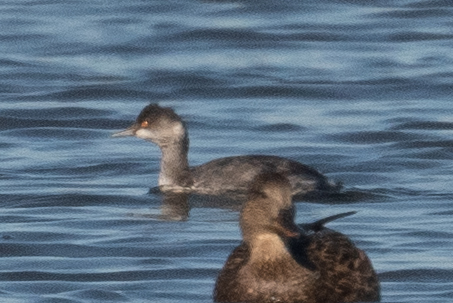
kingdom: Animalia
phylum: Chordata
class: Aves
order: Podicipediformes
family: Podicipedidae
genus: Podiceps
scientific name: Podiceps nigricollis
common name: Black-necked grebe
